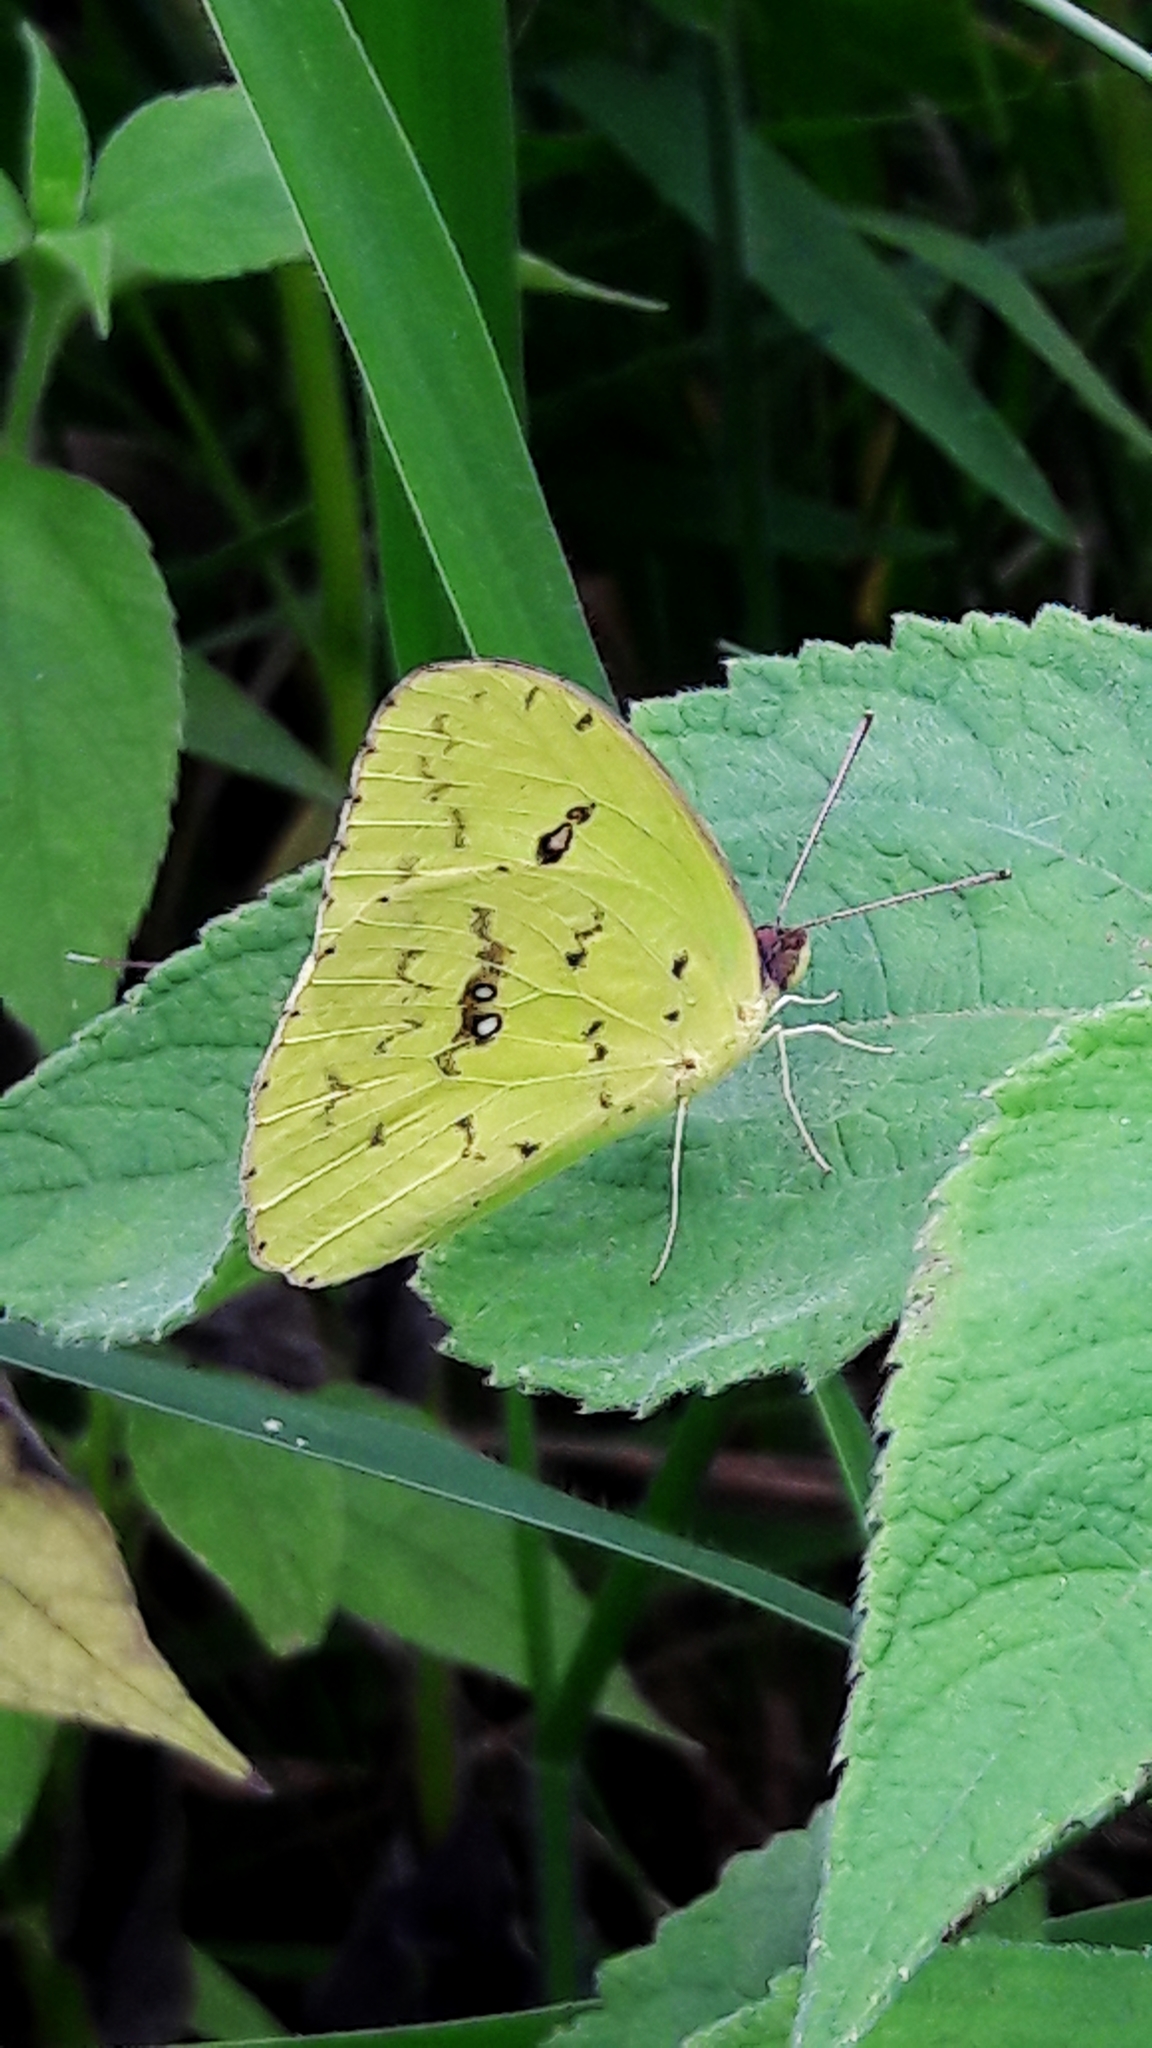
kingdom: Animalia
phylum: Arthropoda
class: Insecta
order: Lepidoptera
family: Pieridae
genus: Phoebis
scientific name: Phoebis marcellina
